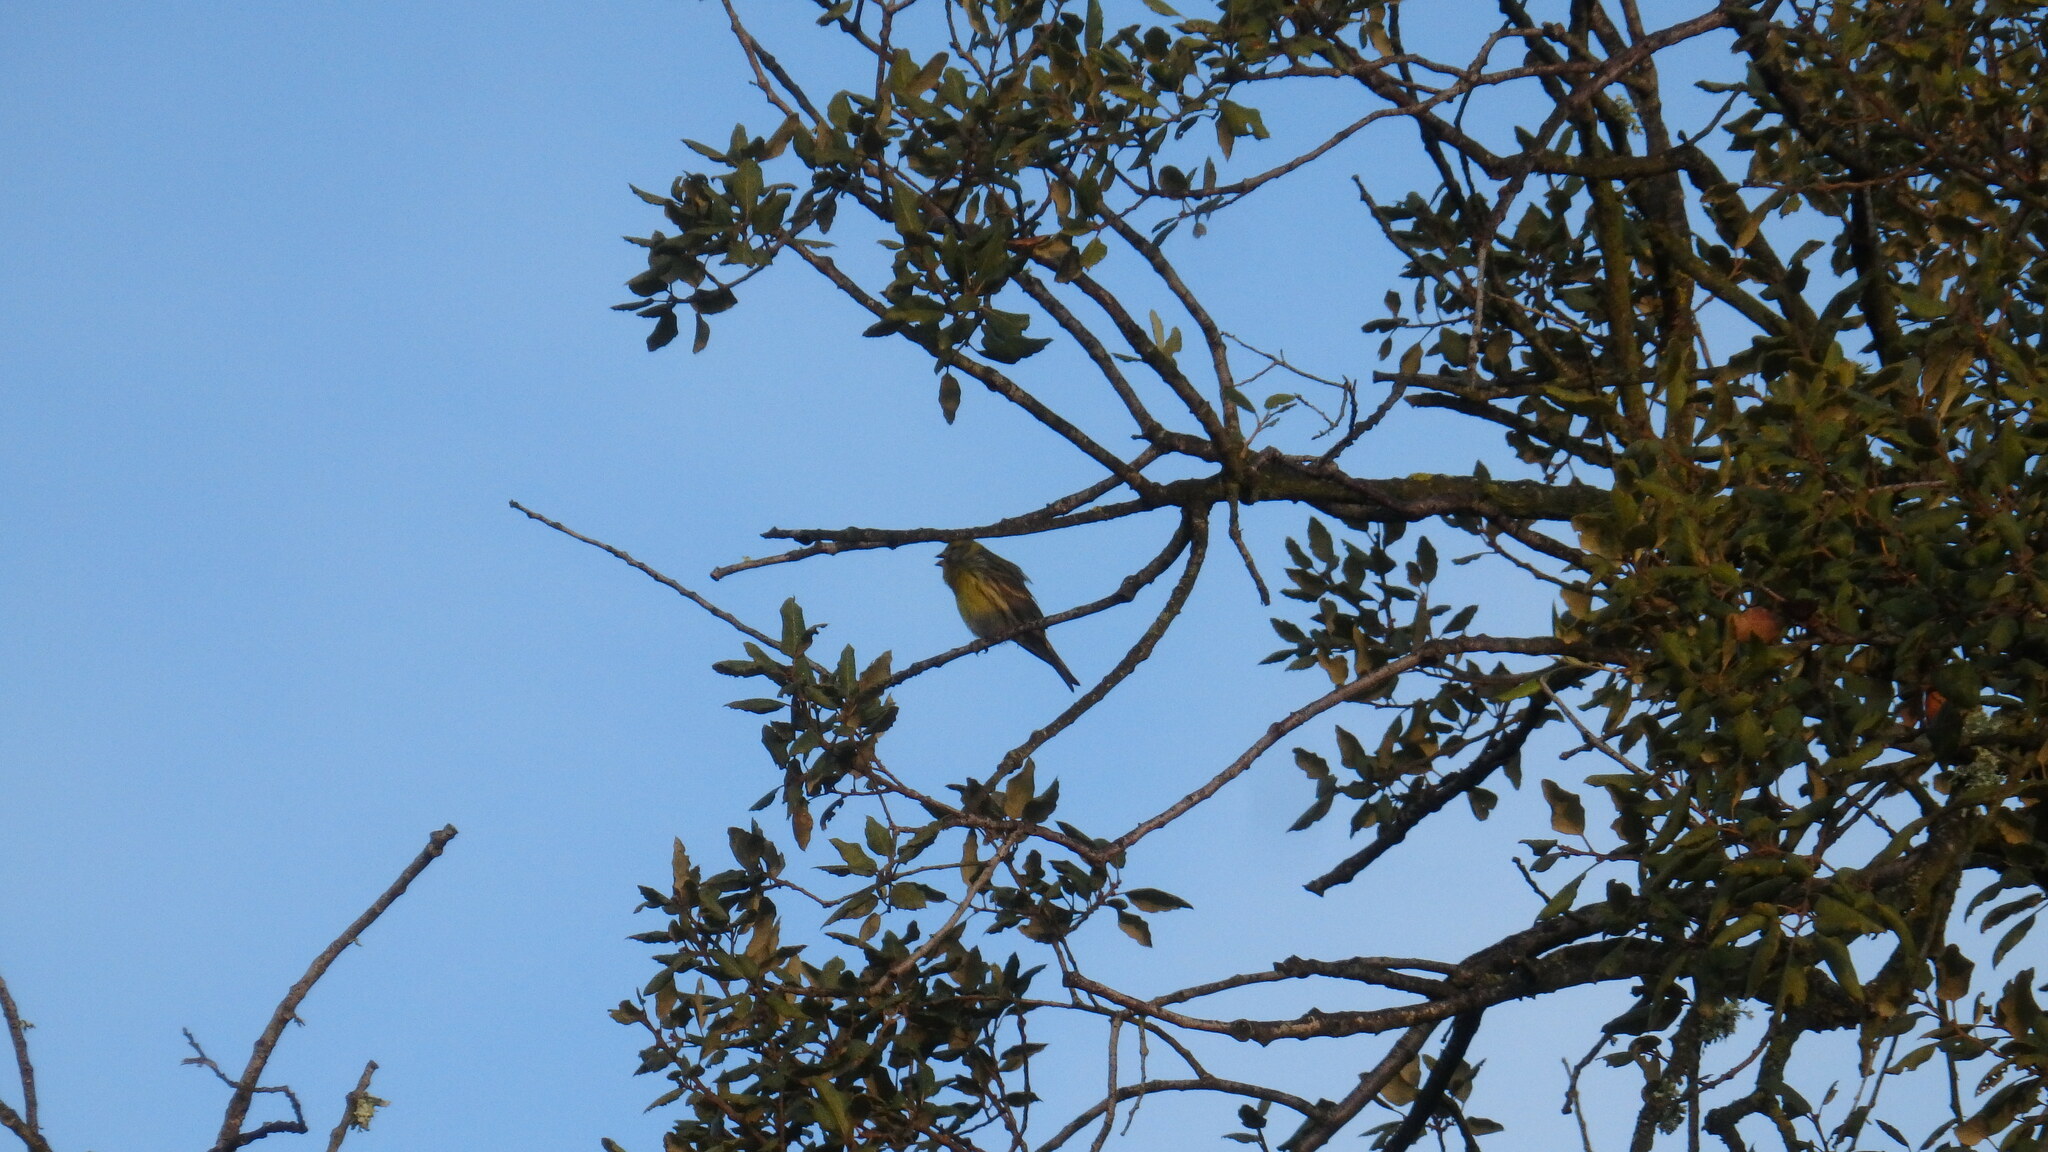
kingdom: Animalia
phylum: Chordata
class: Aves
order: Passeriformes
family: Fringillidae
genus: Serinus
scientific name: Serinus serinus
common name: European serin
